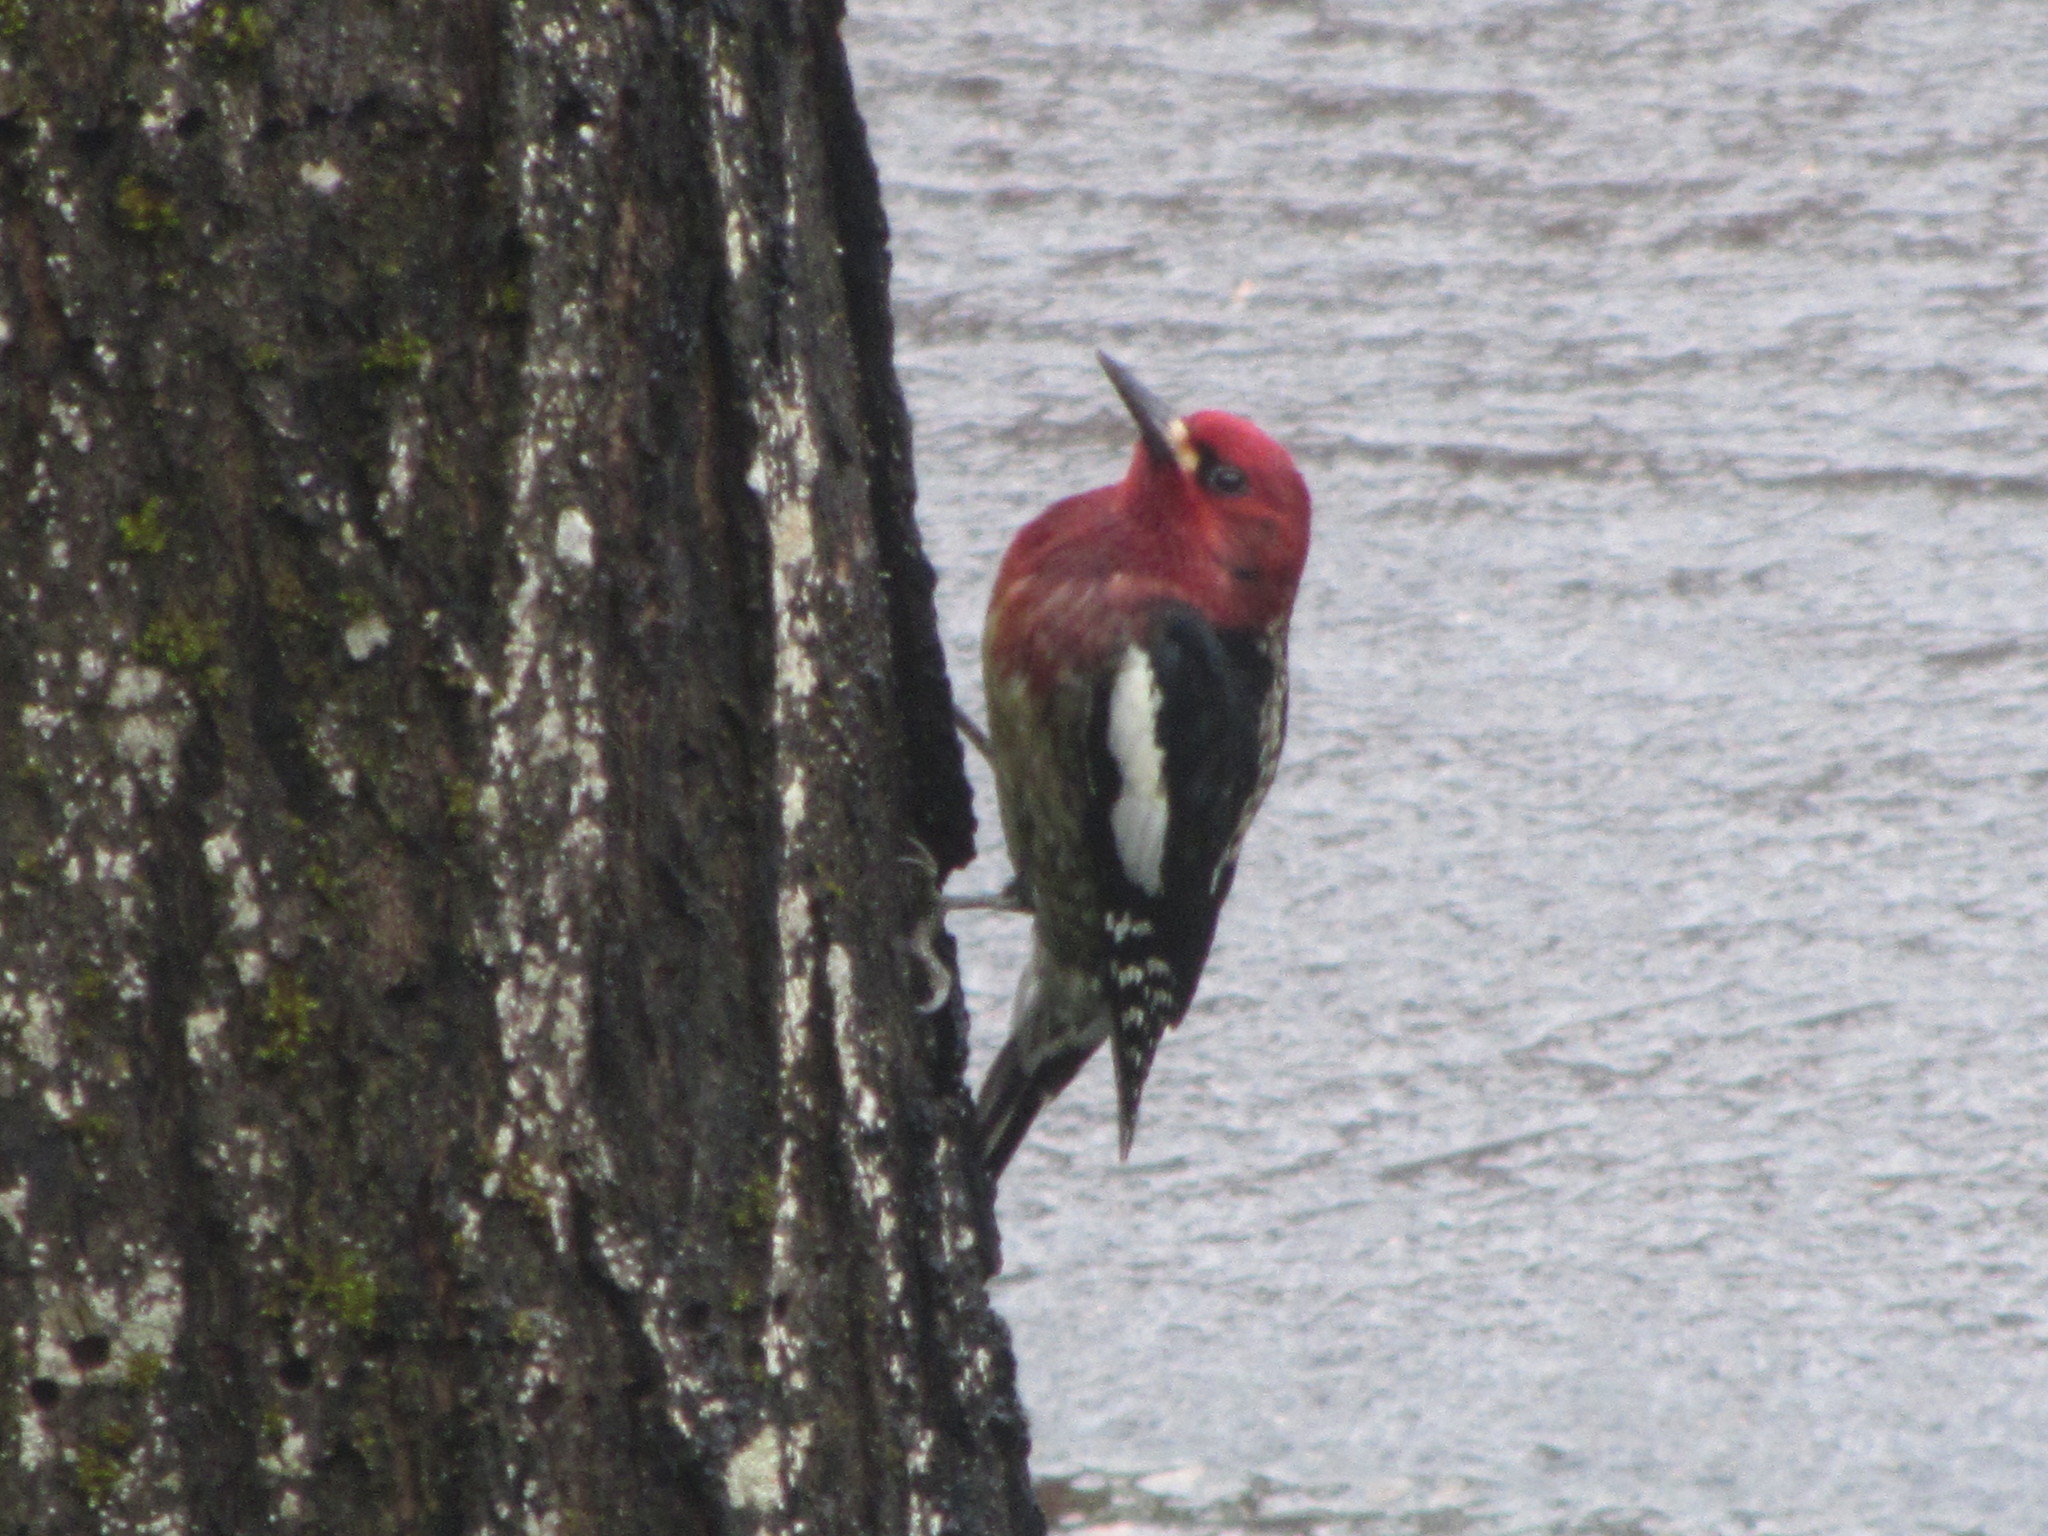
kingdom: Animalia
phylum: Chordata
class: Aves
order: Piciformes
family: Picidae
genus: Sphyrapicus
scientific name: Sphyrapicus ruber
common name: Red-breasted sapsucker
